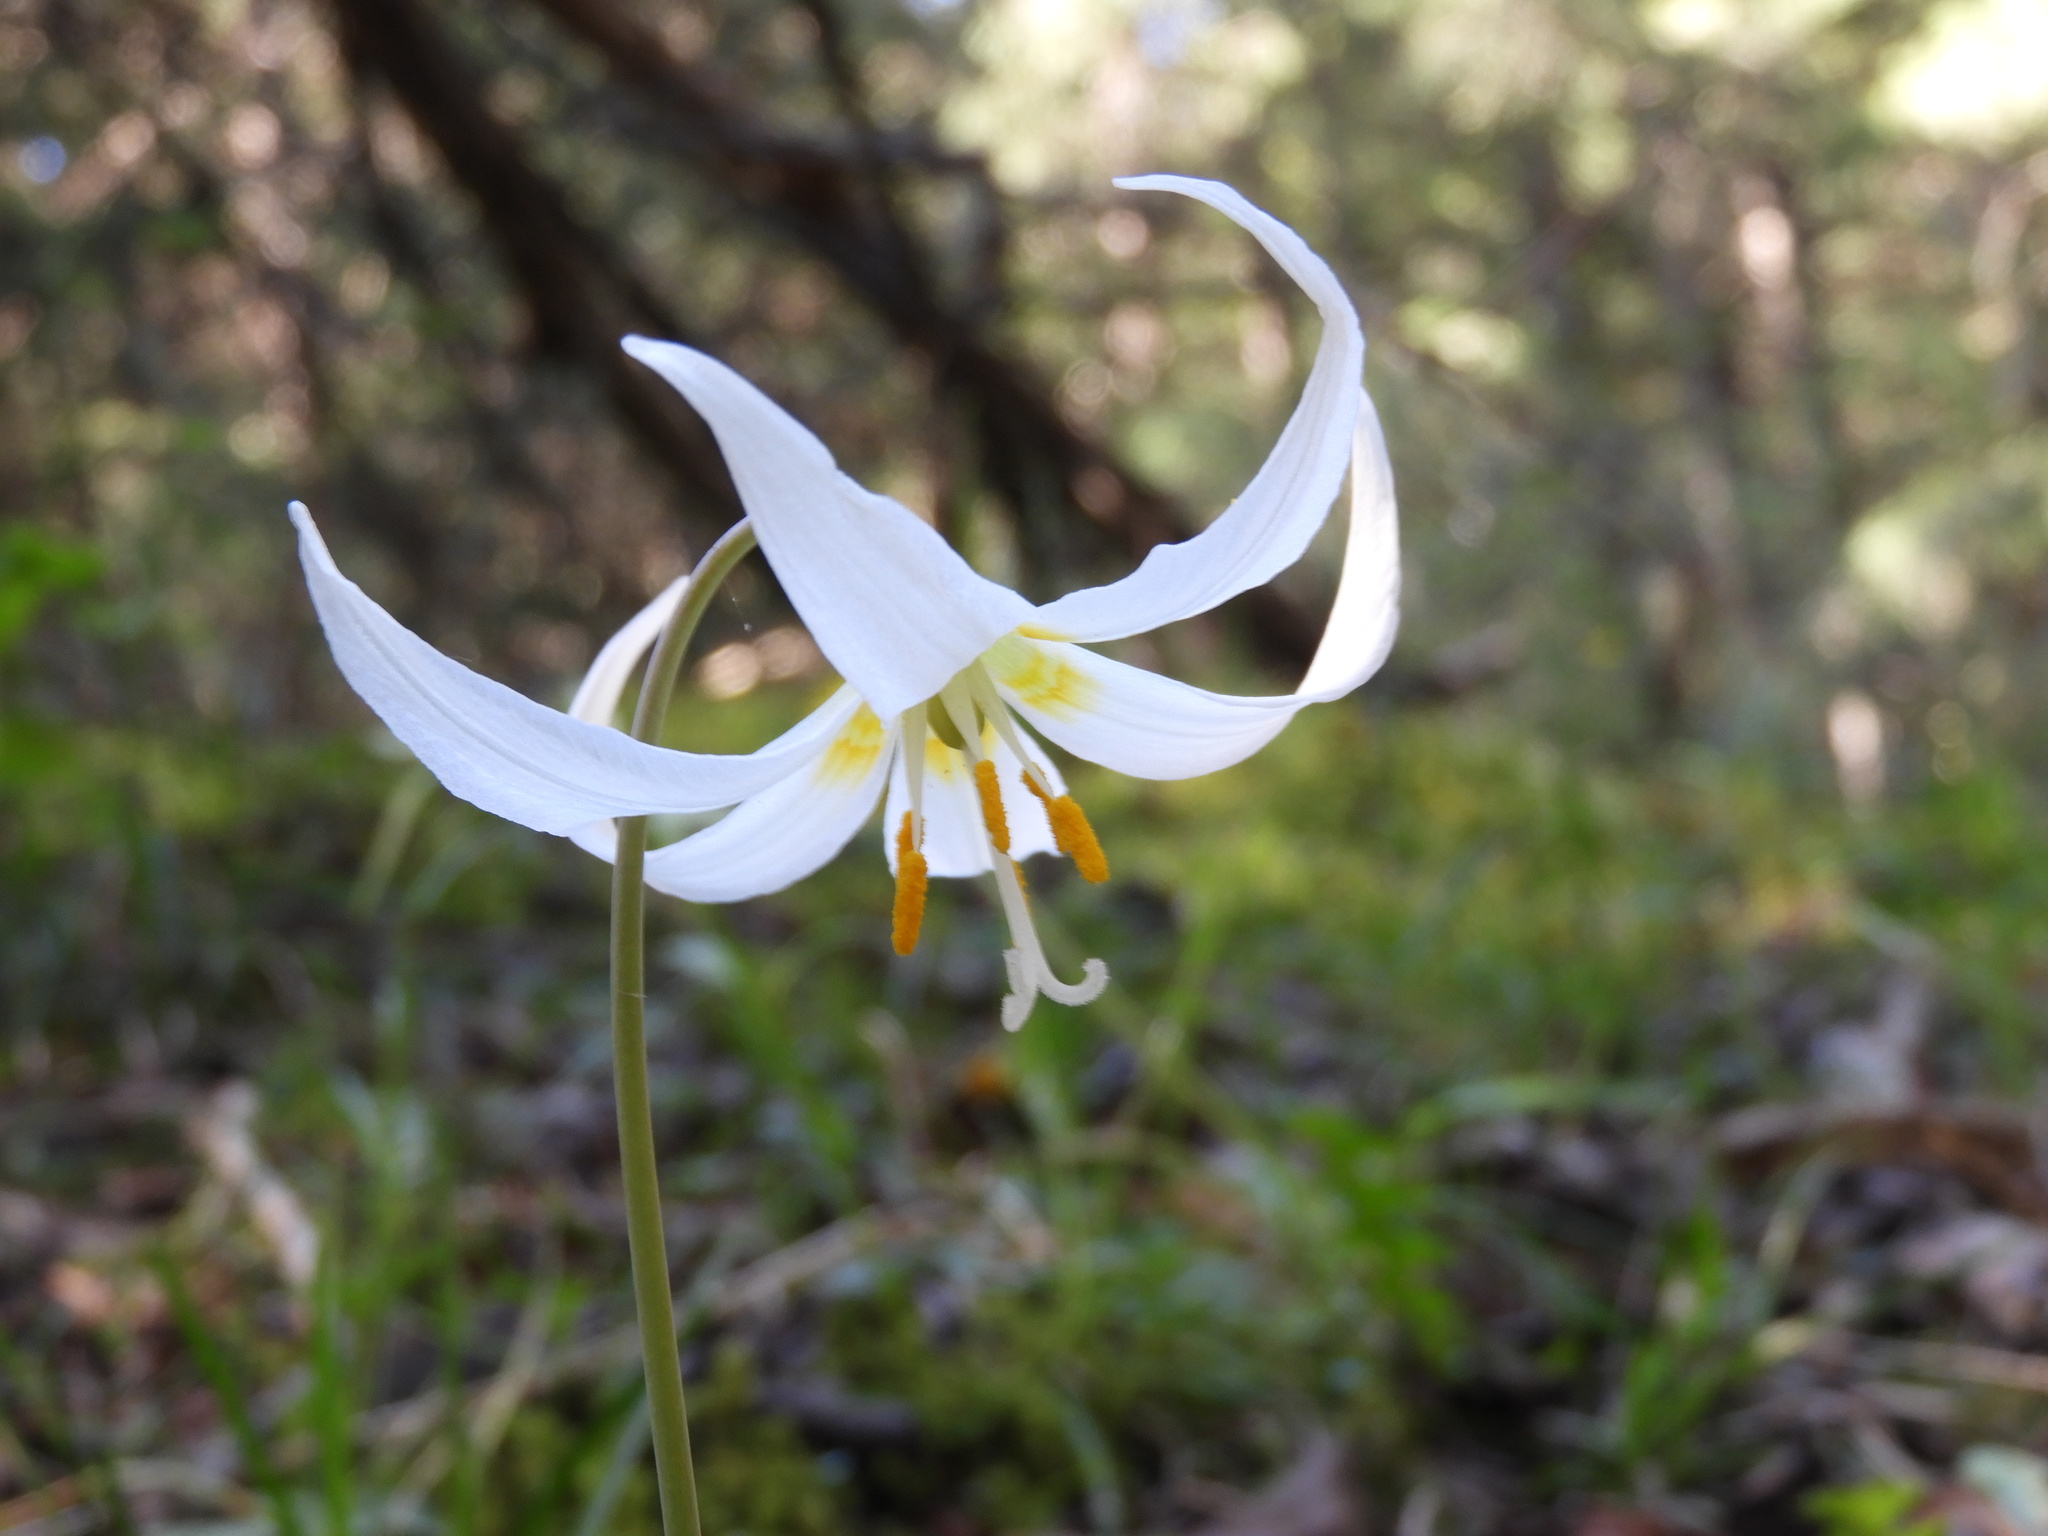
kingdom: Plantae
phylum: Tracheophyta
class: Liliopsida
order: Liliales
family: Liliaceae
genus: Erythronium
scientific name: Erythronium oregonum
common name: Giant adder's-tongue
